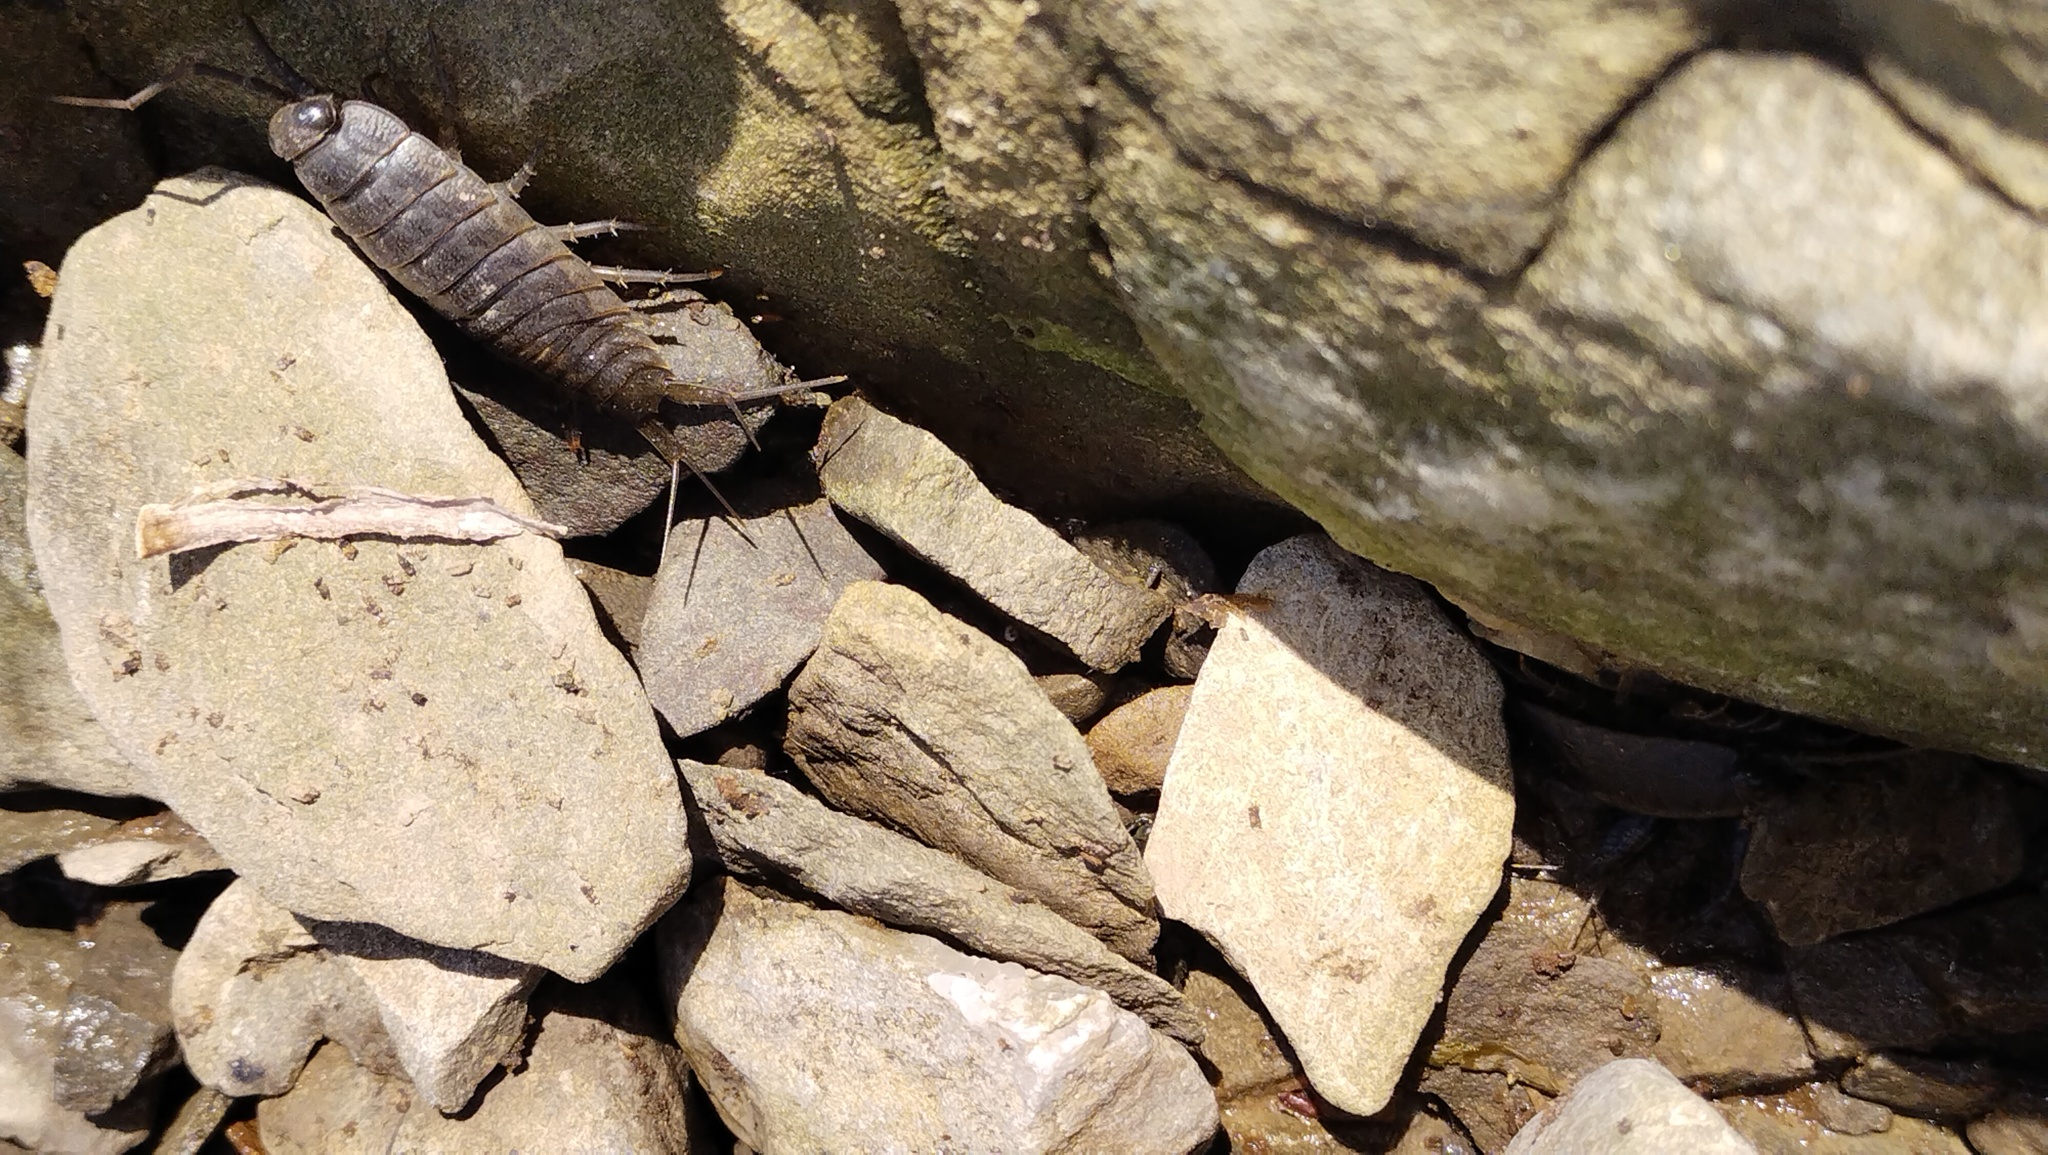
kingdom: Animalia
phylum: Arthropoda
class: Malacostraca
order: Isopoda
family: Ligiidae
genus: Ligia
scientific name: Ligia cinerascens
